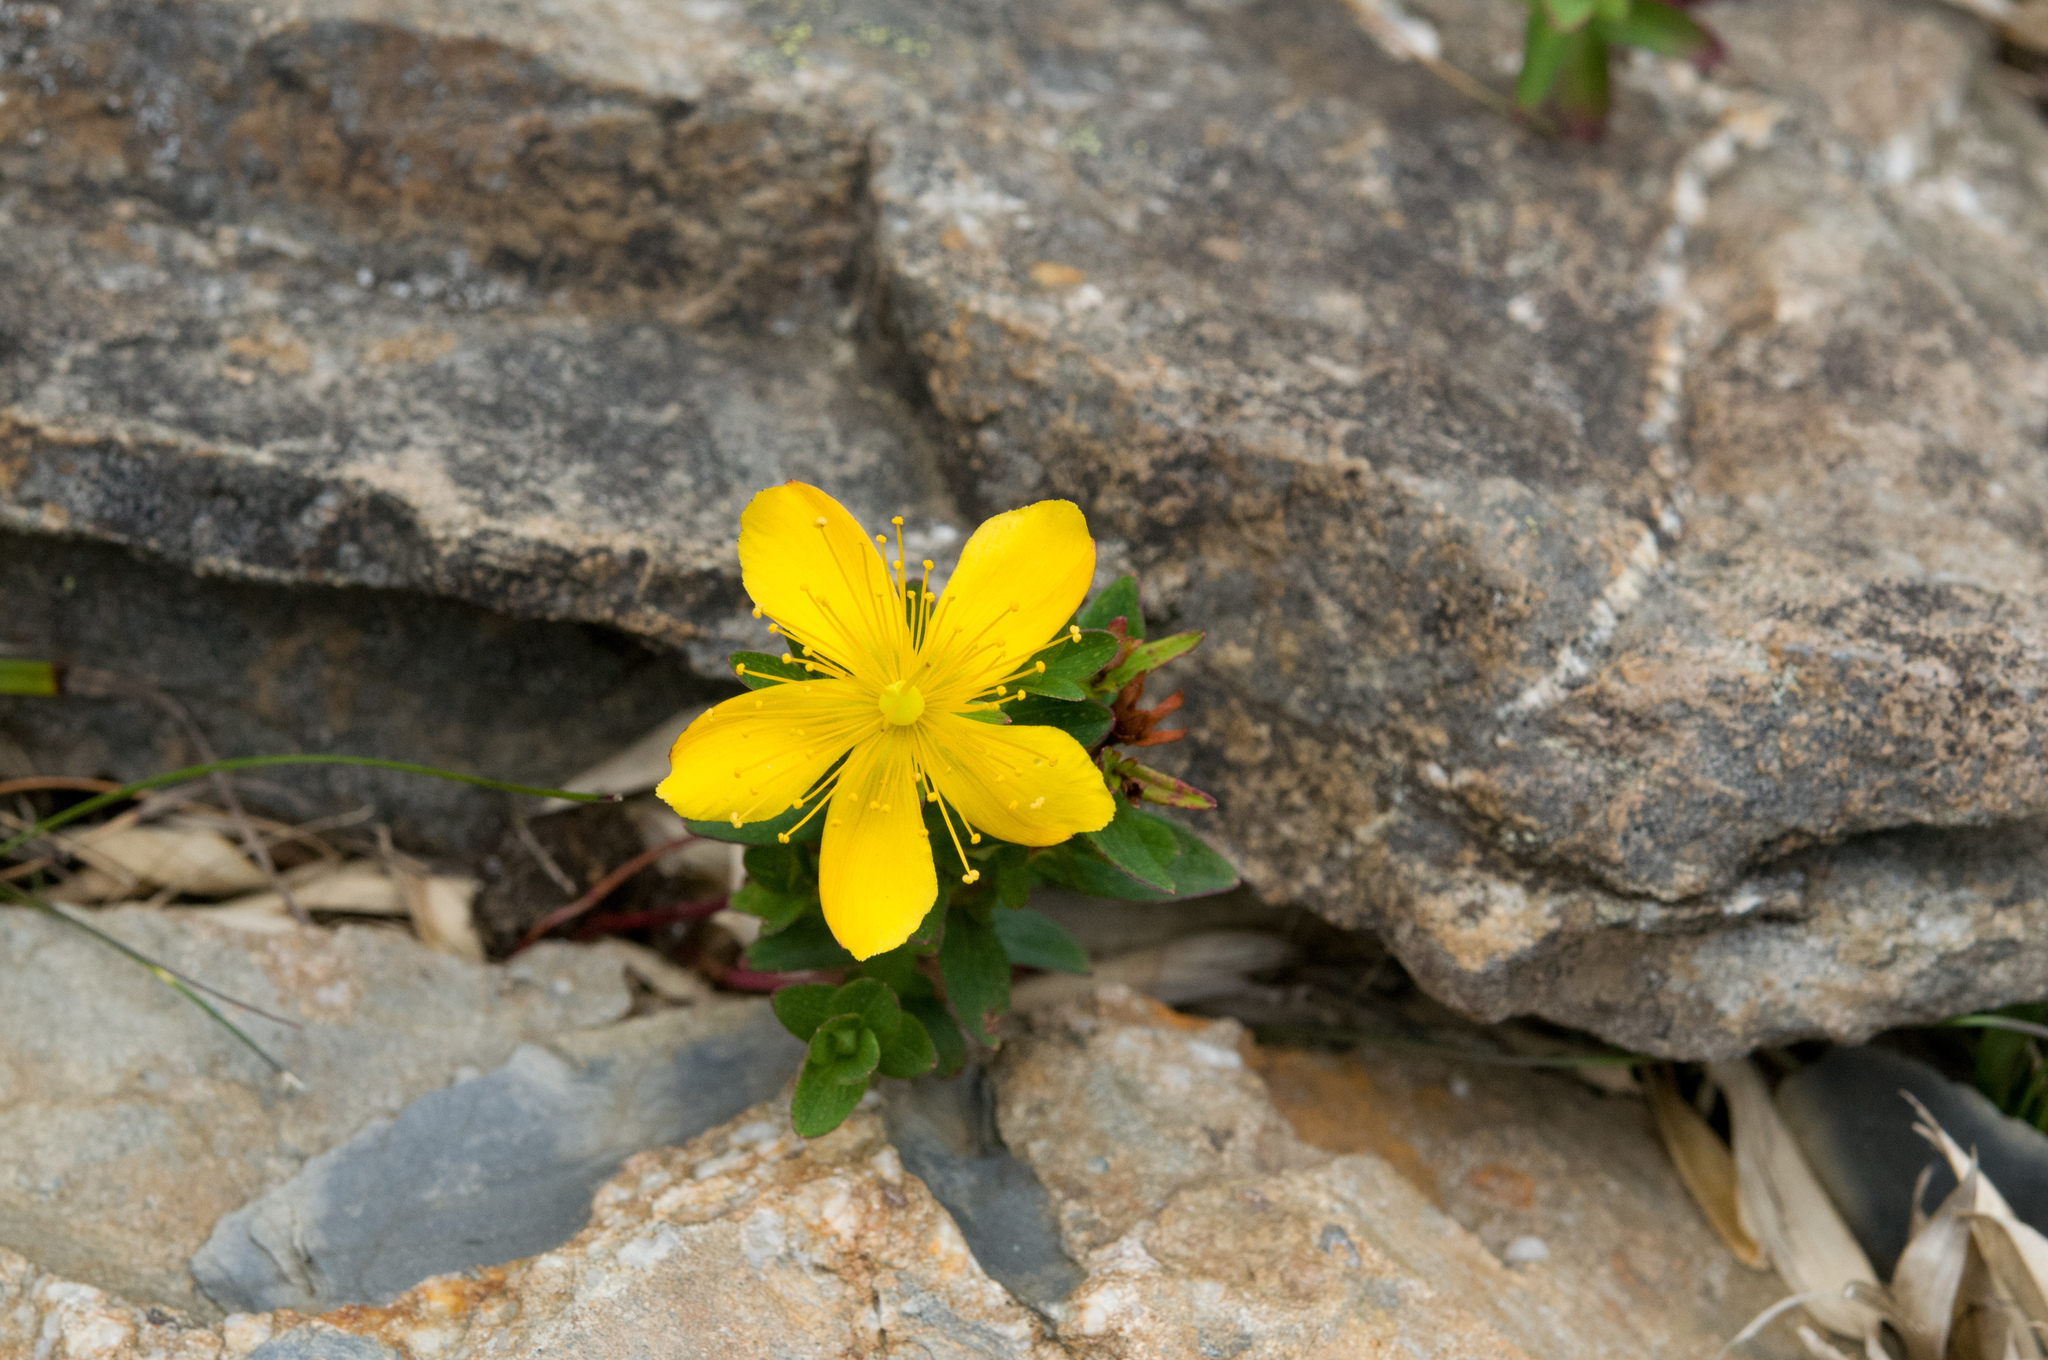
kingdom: Plantae
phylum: Tracheophyta
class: Magnoliopsida
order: Malpighiales
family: Hypericaceae
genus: Hypericum
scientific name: Hypericum nagasawae
